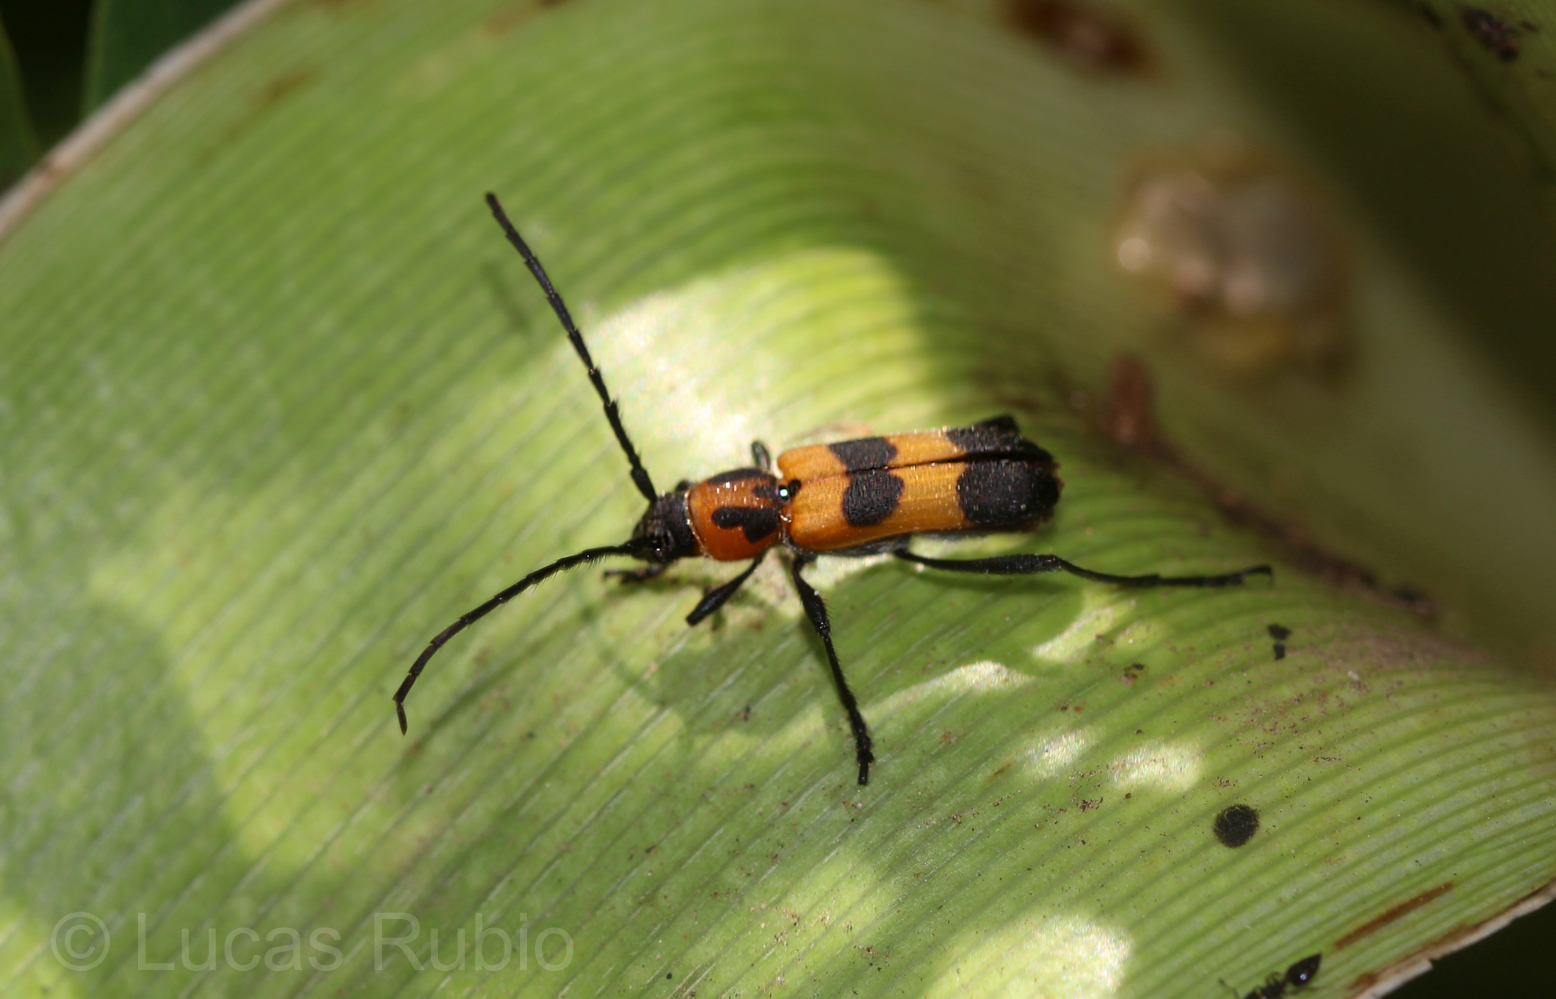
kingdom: Animalia
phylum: Arthropoda
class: Insecta
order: Coleoptera
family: Cerambycidae
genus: Erythrochiton
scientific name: Erythrochiton jucundum
